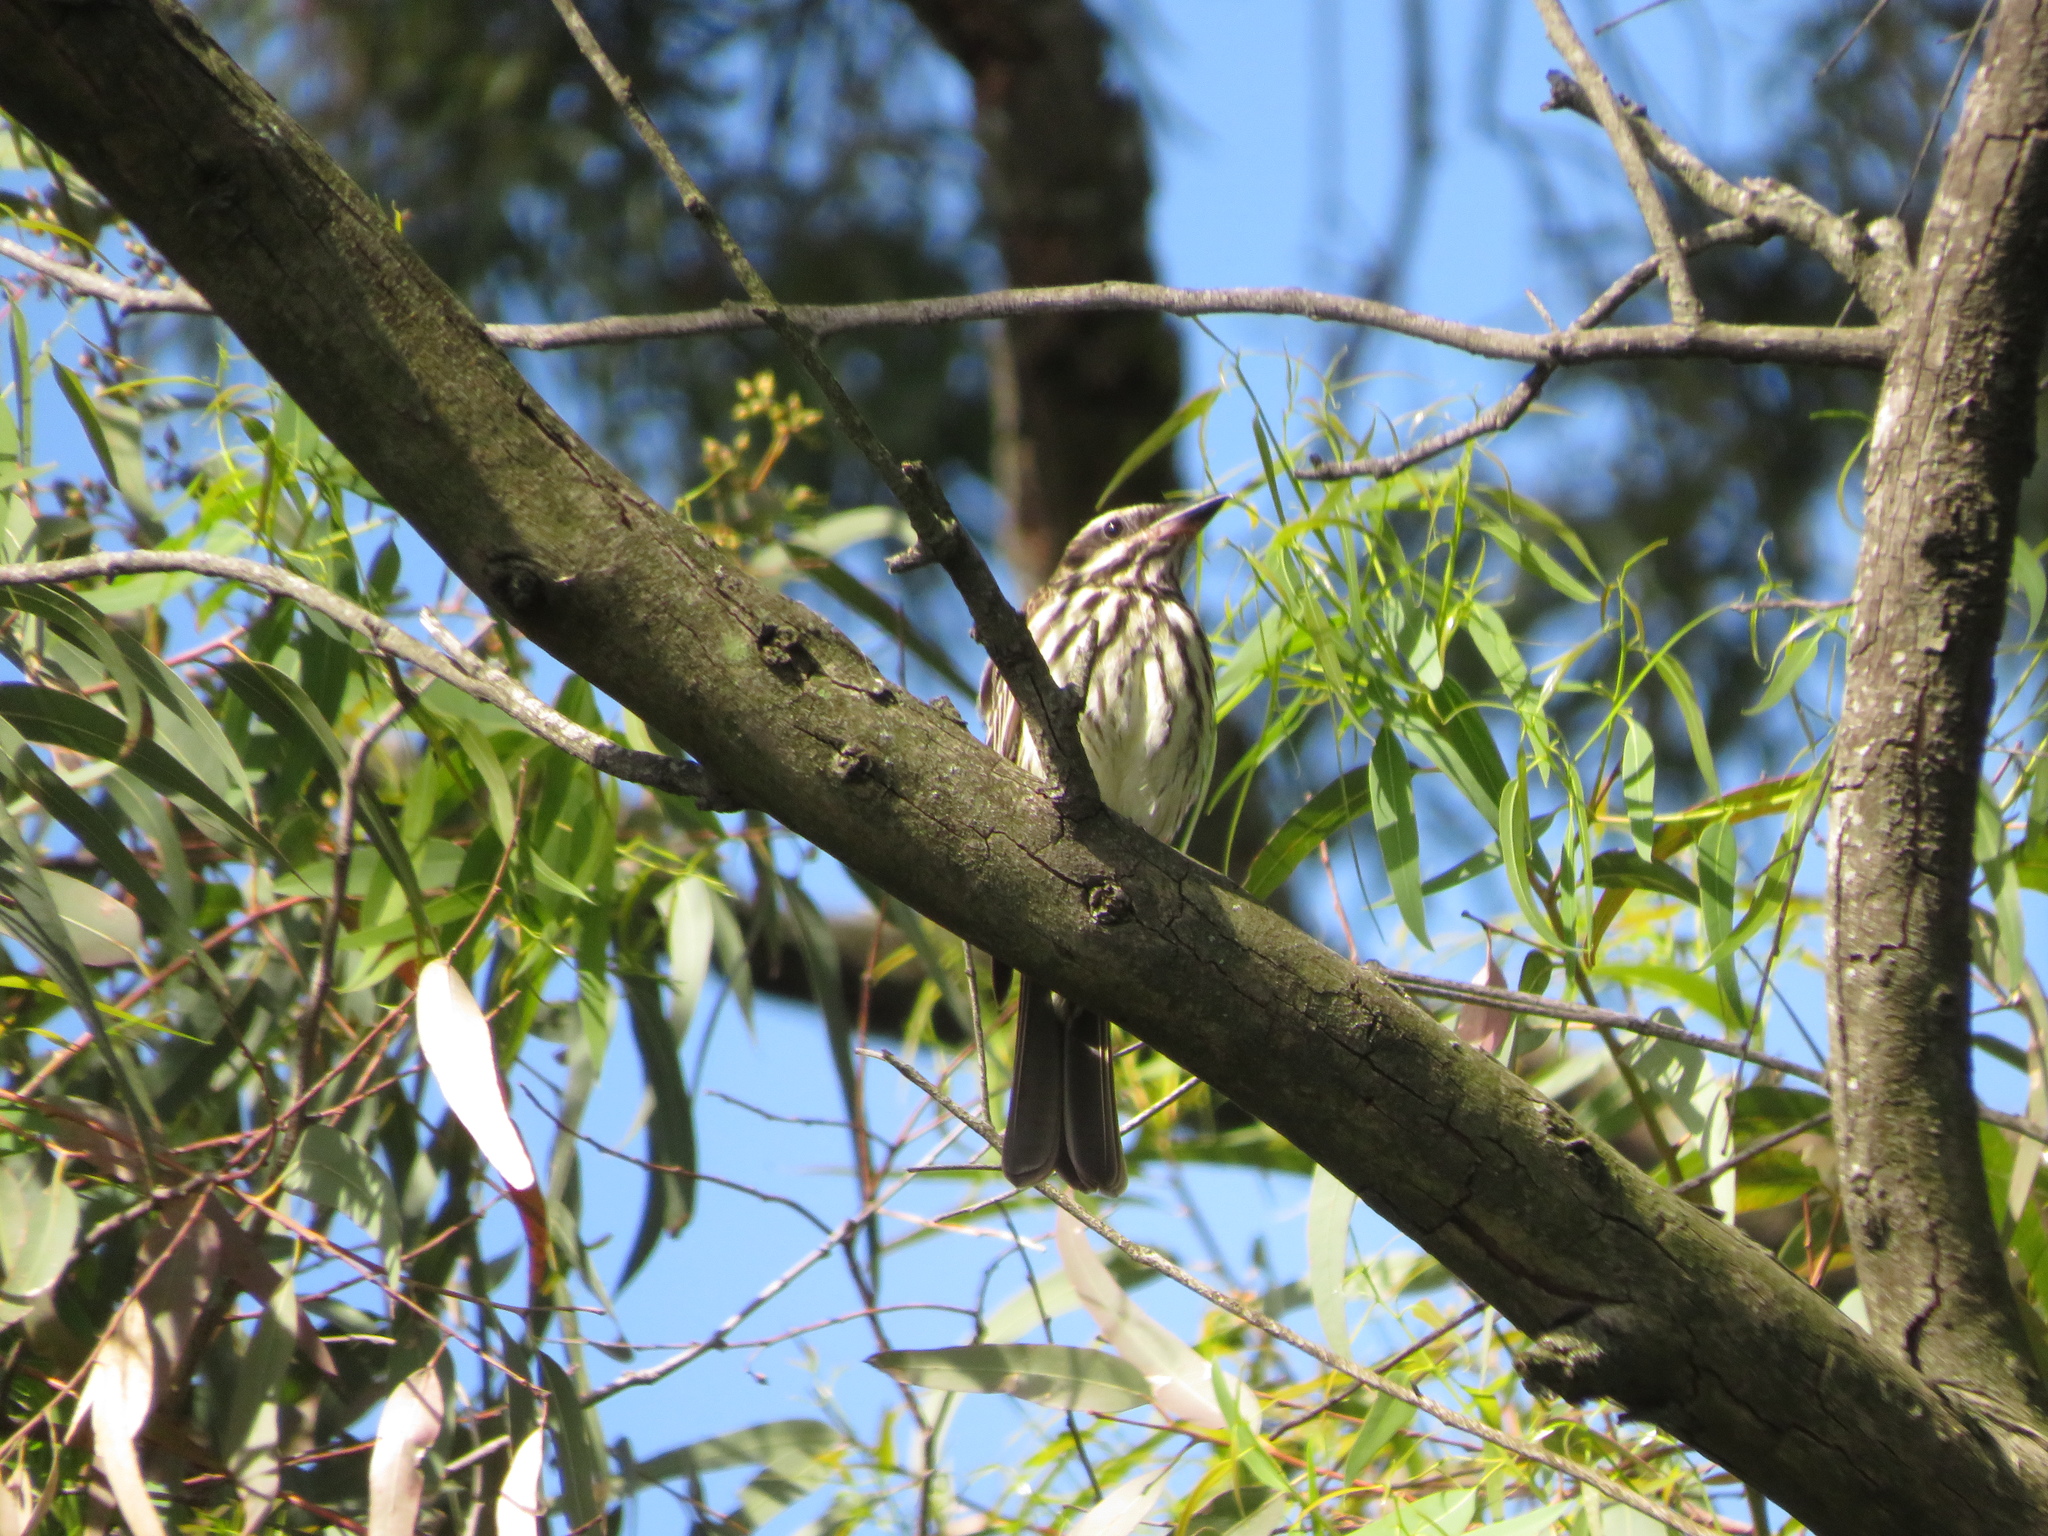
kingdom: Animalia
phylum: Chordata
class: Aves
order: Passeriformes
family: Tyrannidae
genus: Myiodynastes
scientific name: Myiodynastes maculatus
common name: Streaked flycatcher
